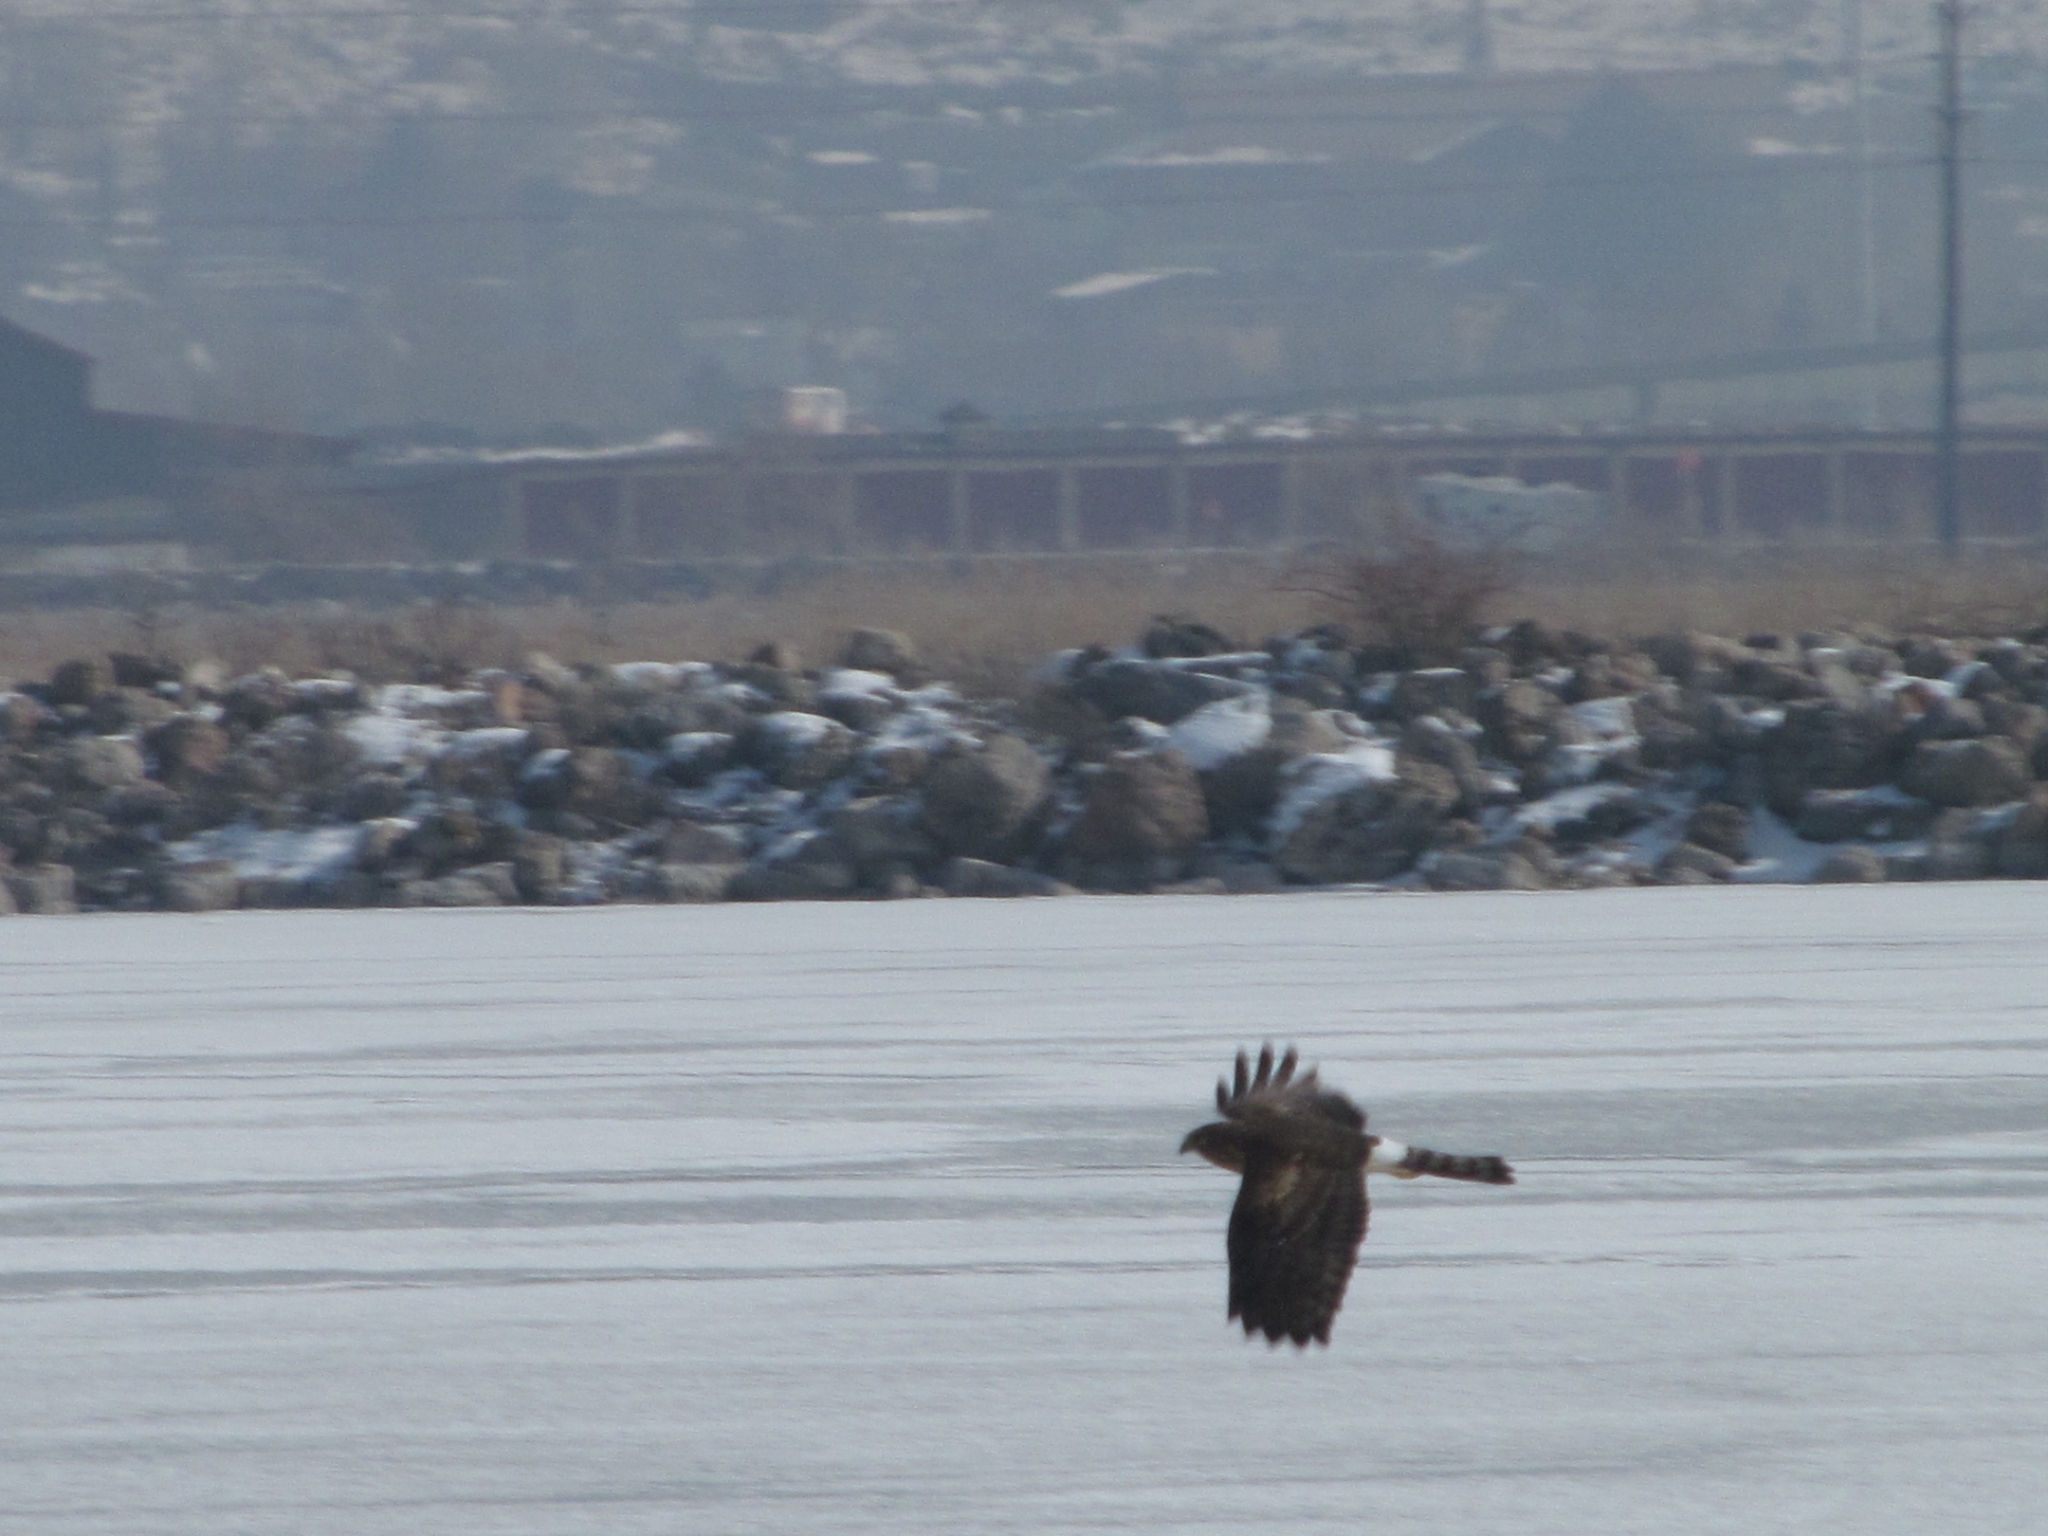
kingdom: Animalia
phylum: Chordata
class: Aves
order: Accipitriformes
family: Accipitridae
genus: Circus
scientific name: Circus cyaneus
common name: Hen harrier
